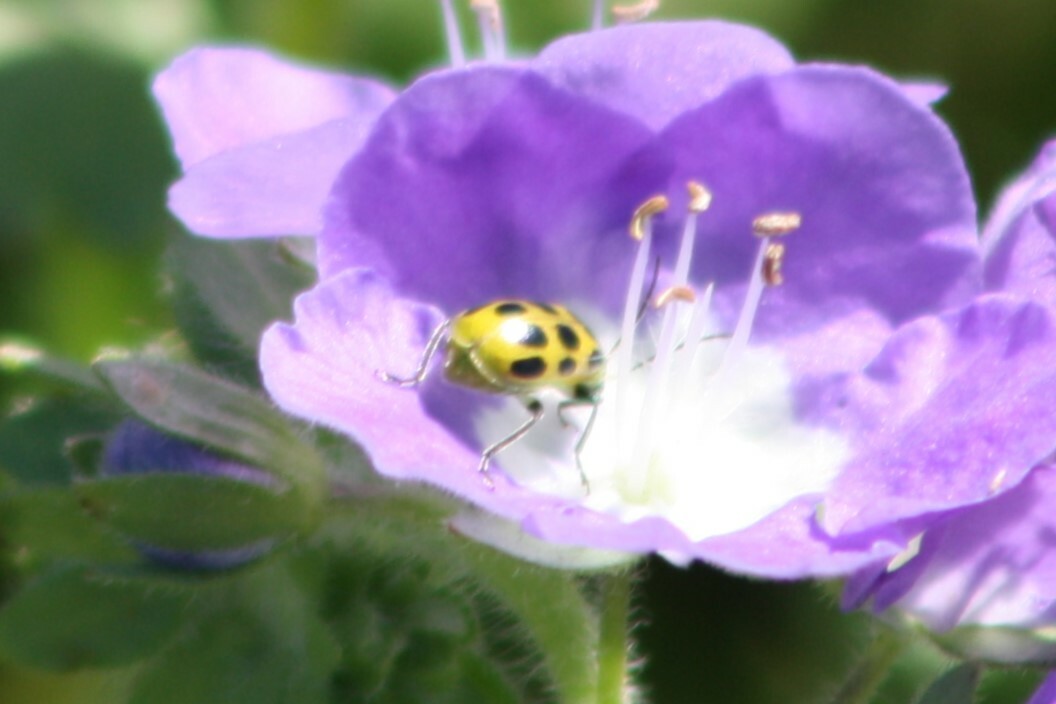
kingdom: Animalia
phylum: Arthropoda
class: Insecta
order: Coleoptera
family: Chrysomelidae
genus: Diabrotica
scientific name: Diabrotica undecimpunctata
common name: Spotted cucumber beetle
